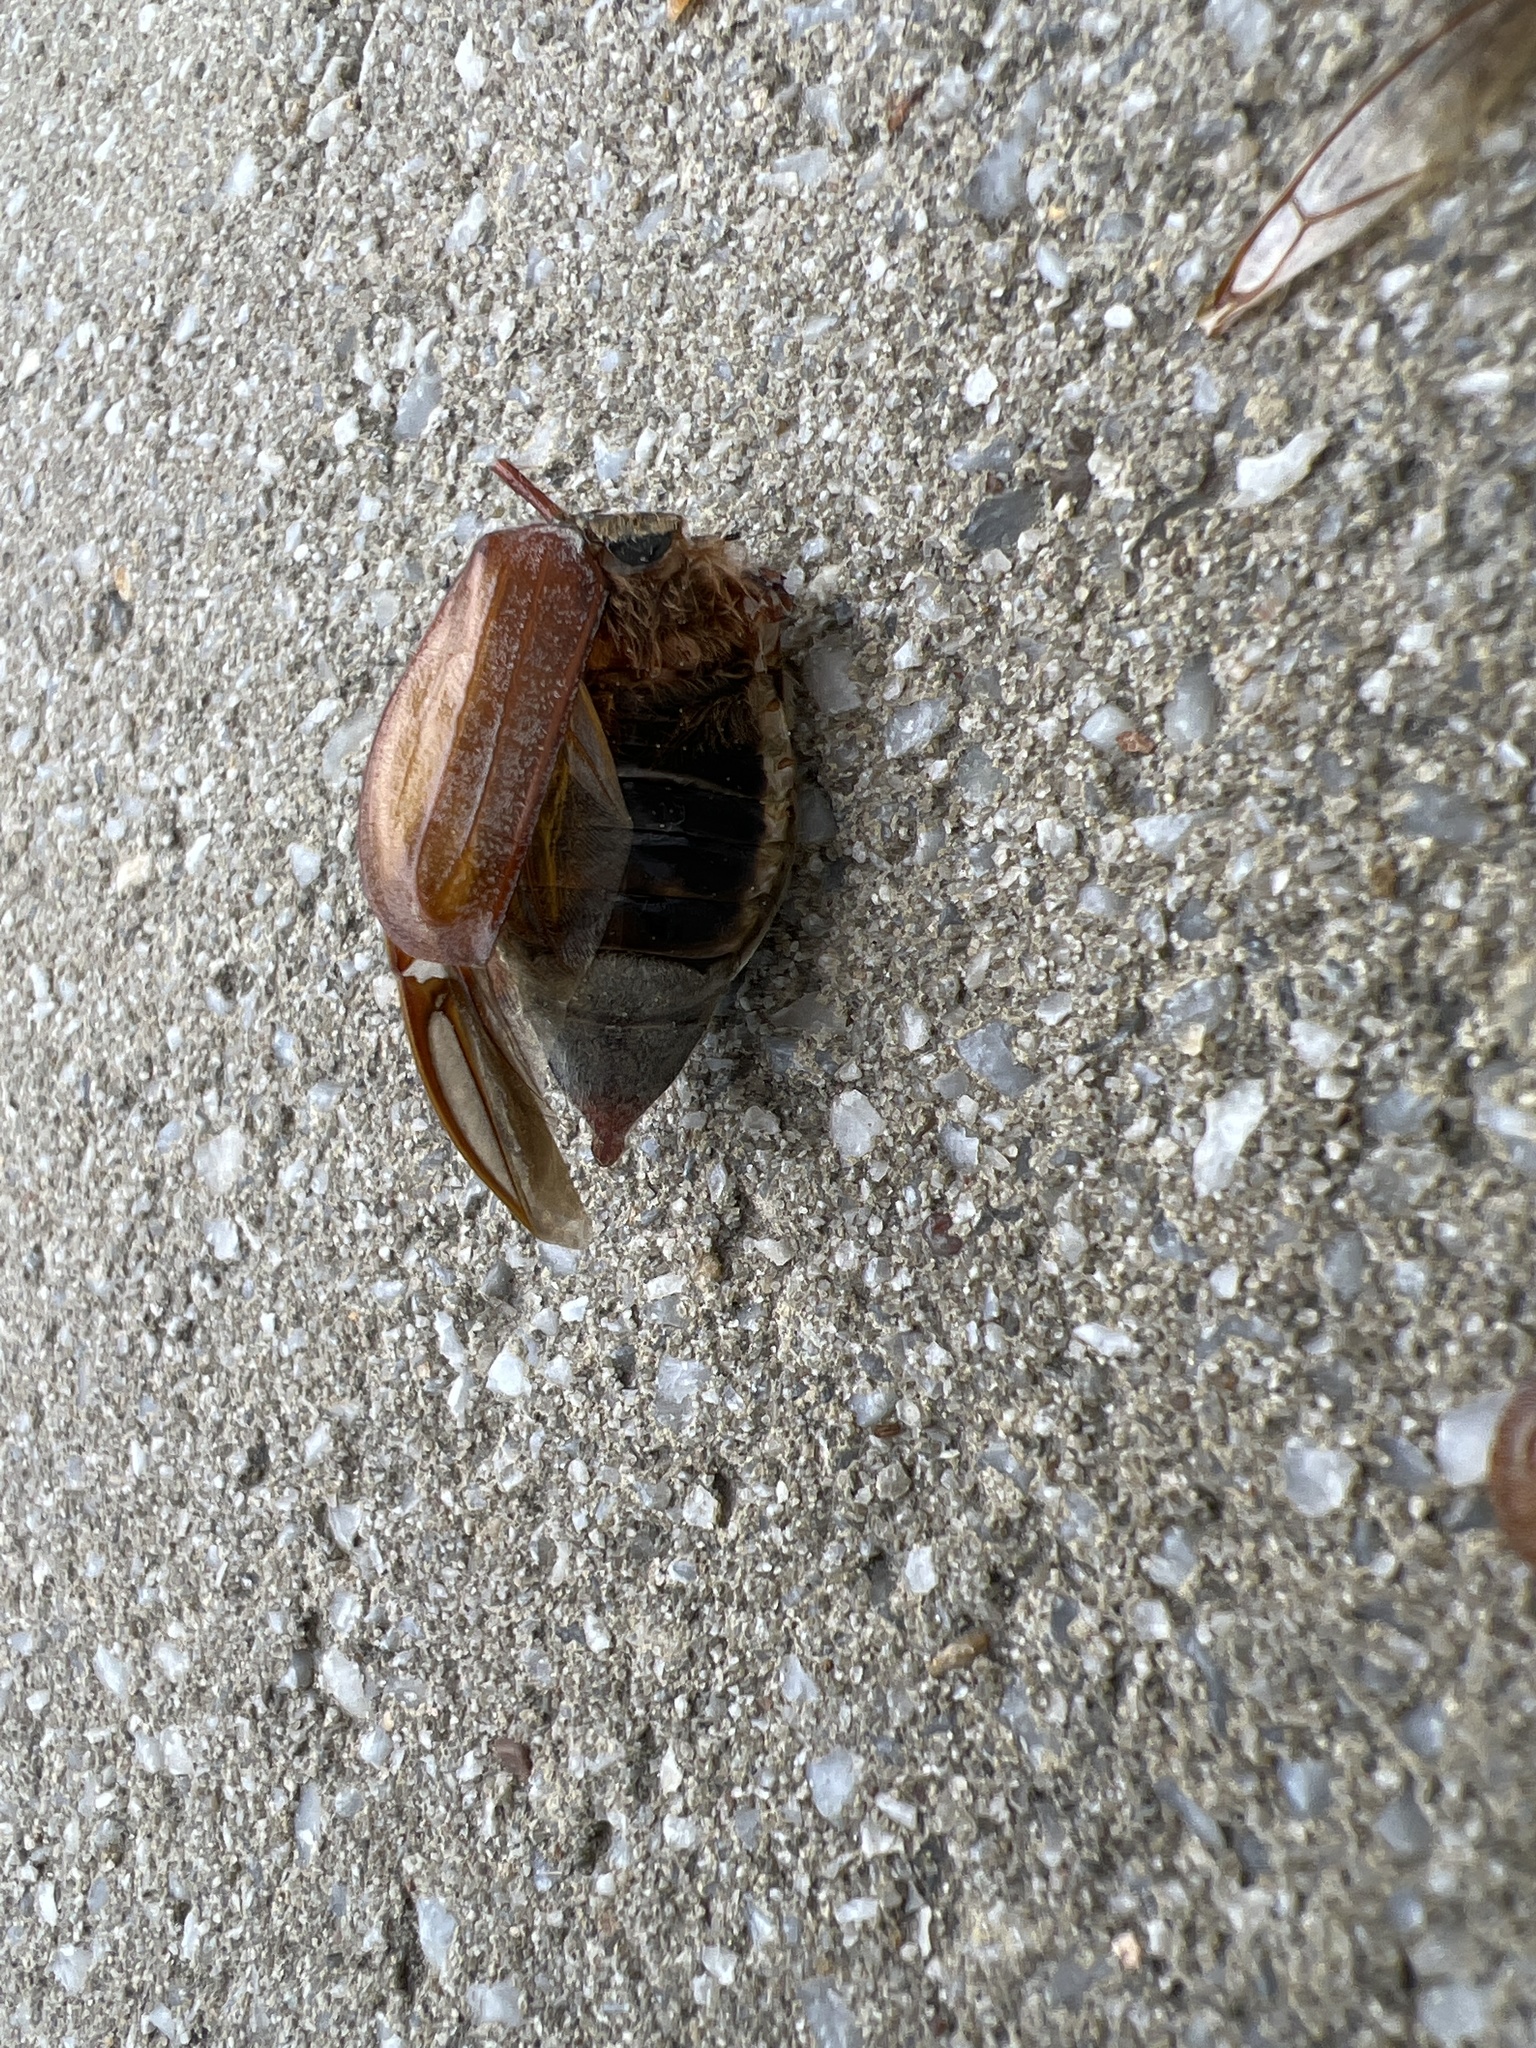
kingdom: Animalia
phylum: Arthropoda
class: Insecta
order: Coleoptera
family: Scarabaeidae
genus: Melolontha
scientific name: Melolontha melolontha
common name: Cockchafer maybeetle
